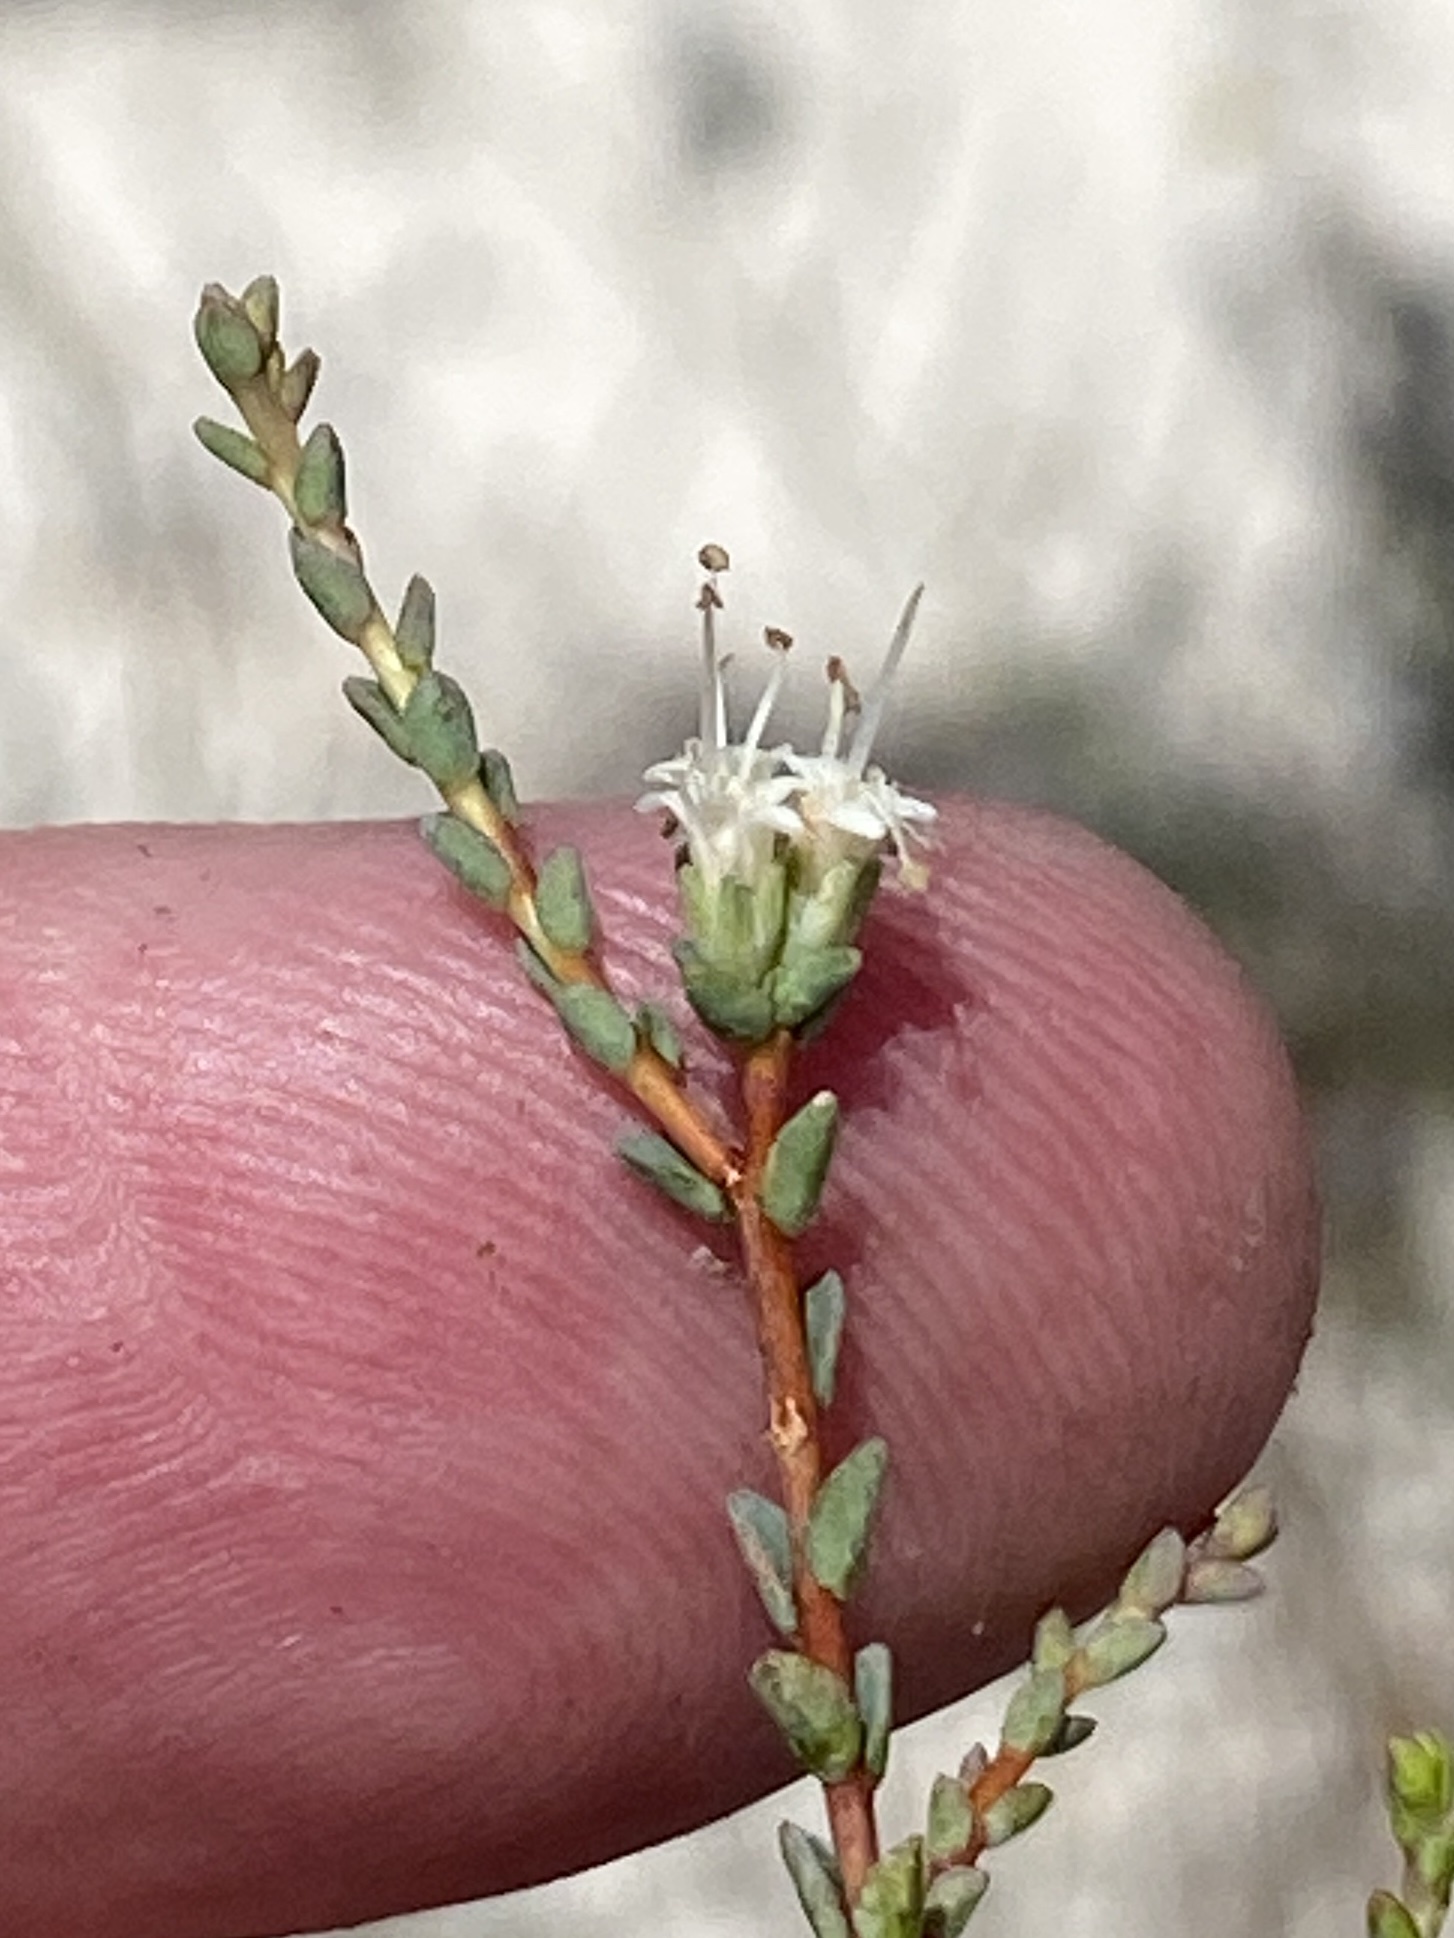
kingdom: Plantae
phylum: Tracheophyta
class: Magnoliopsida
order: Sapindales
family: Rutaceae
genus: Macrostylis
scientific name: Macrostylis crassifolia
